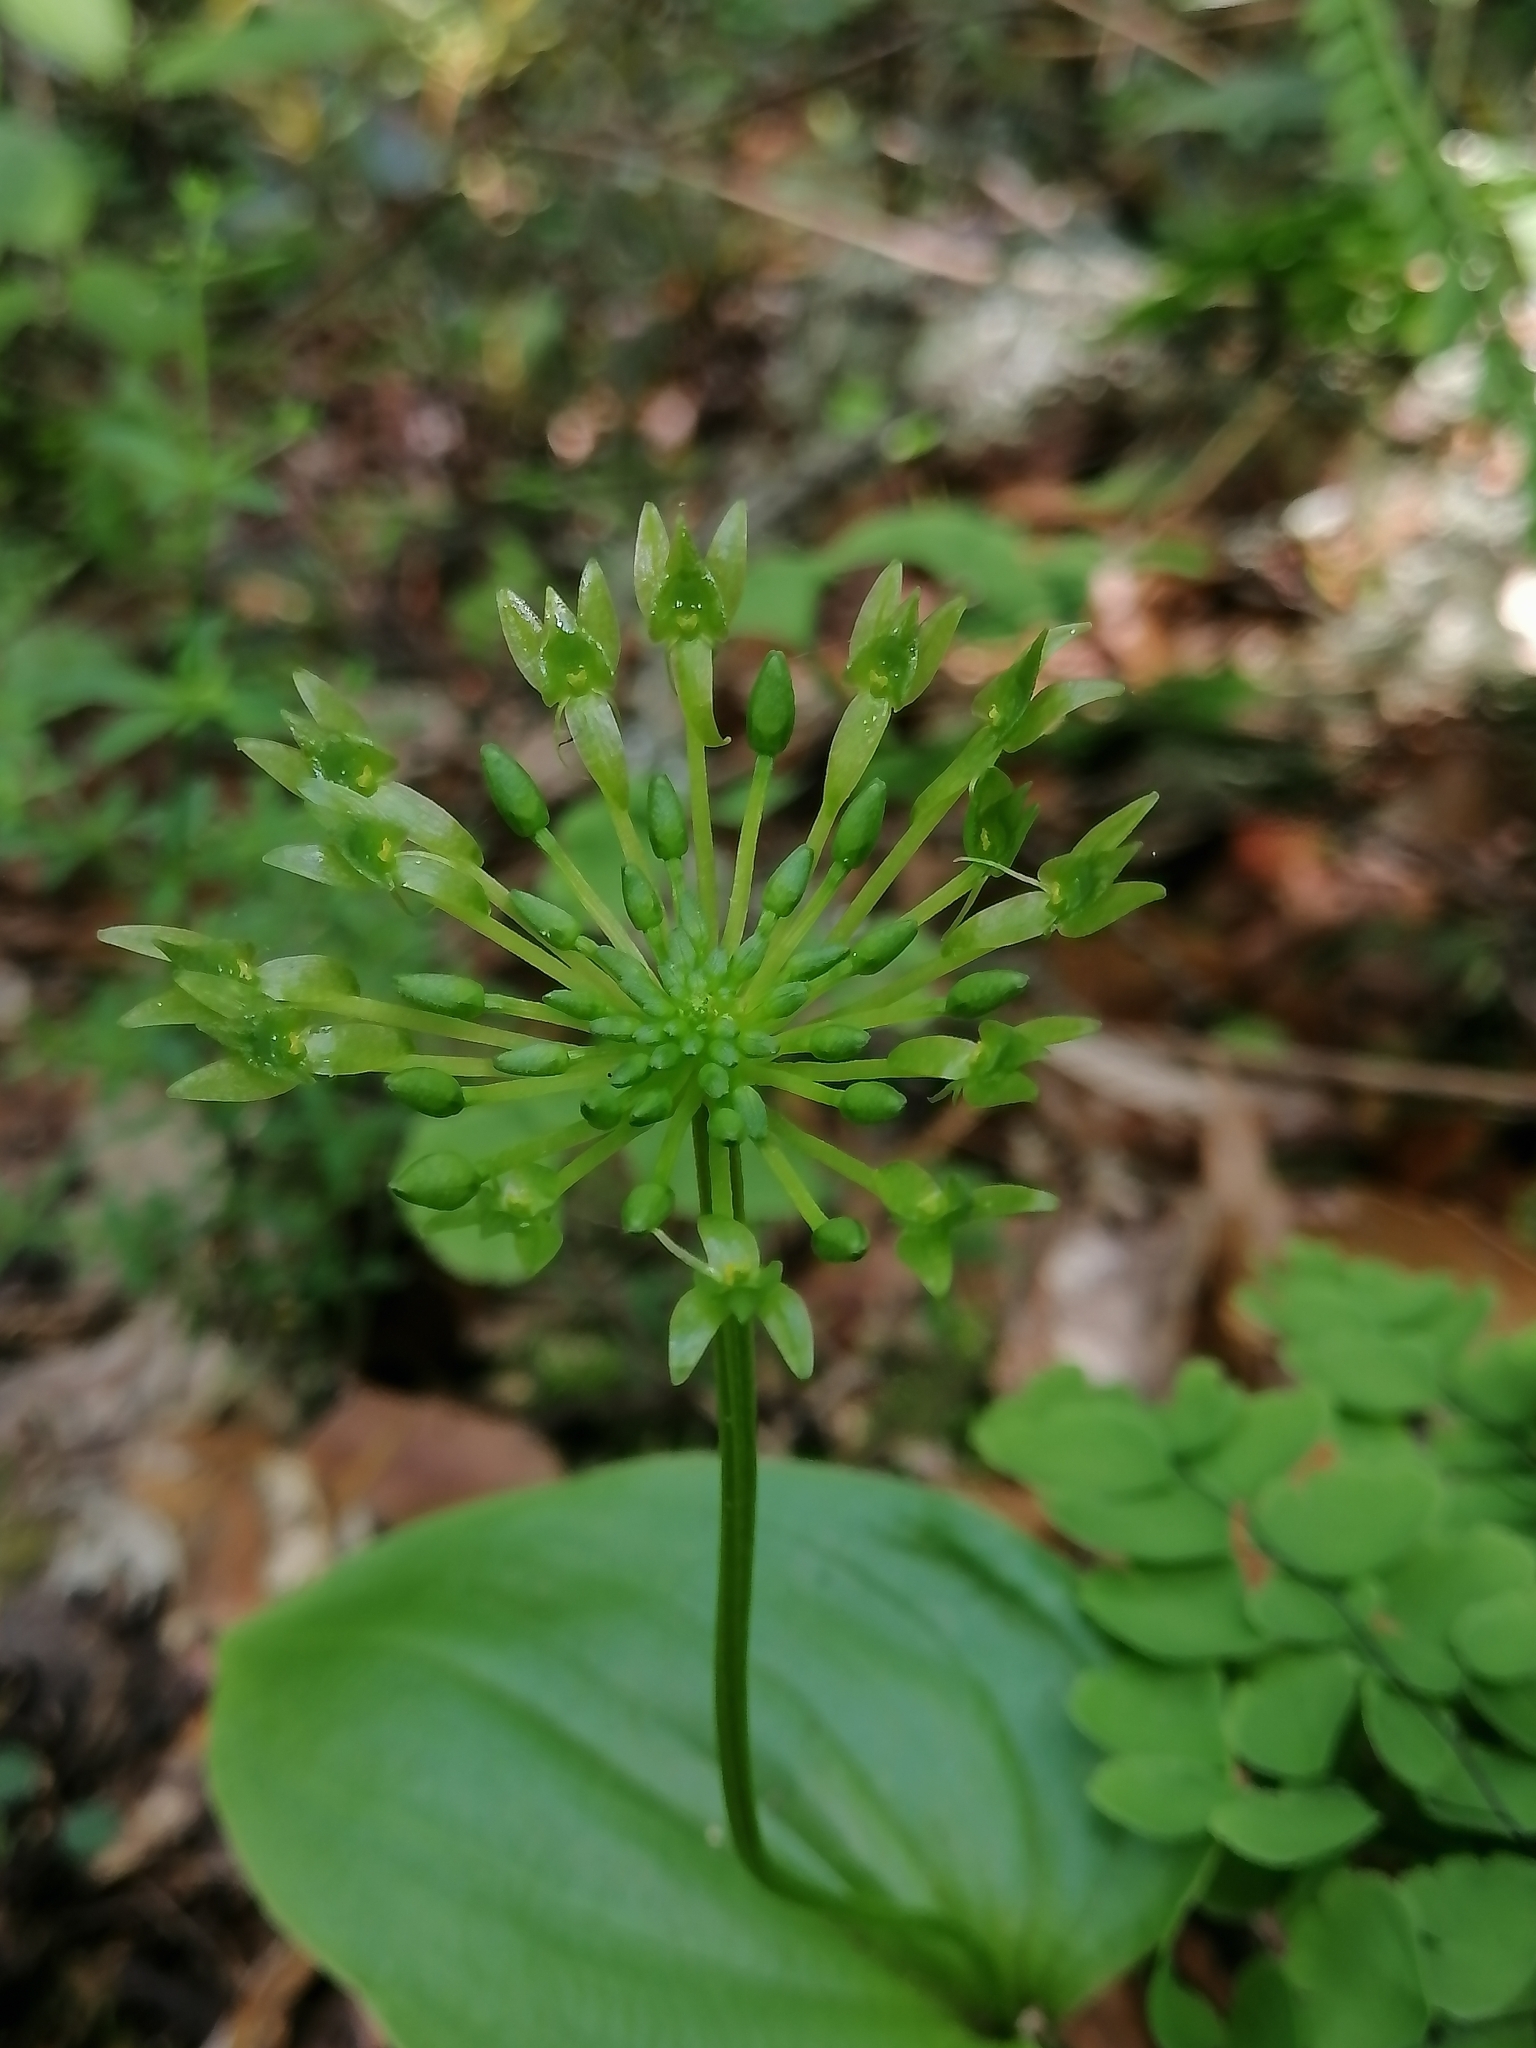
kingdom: Plantae
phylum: Tracheophyta
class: Liliopsida
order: Asparagales
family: Orchidaceae
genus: Malaxis
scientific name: Malaxis brachystachys
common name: Huachuca adder's-mouth
